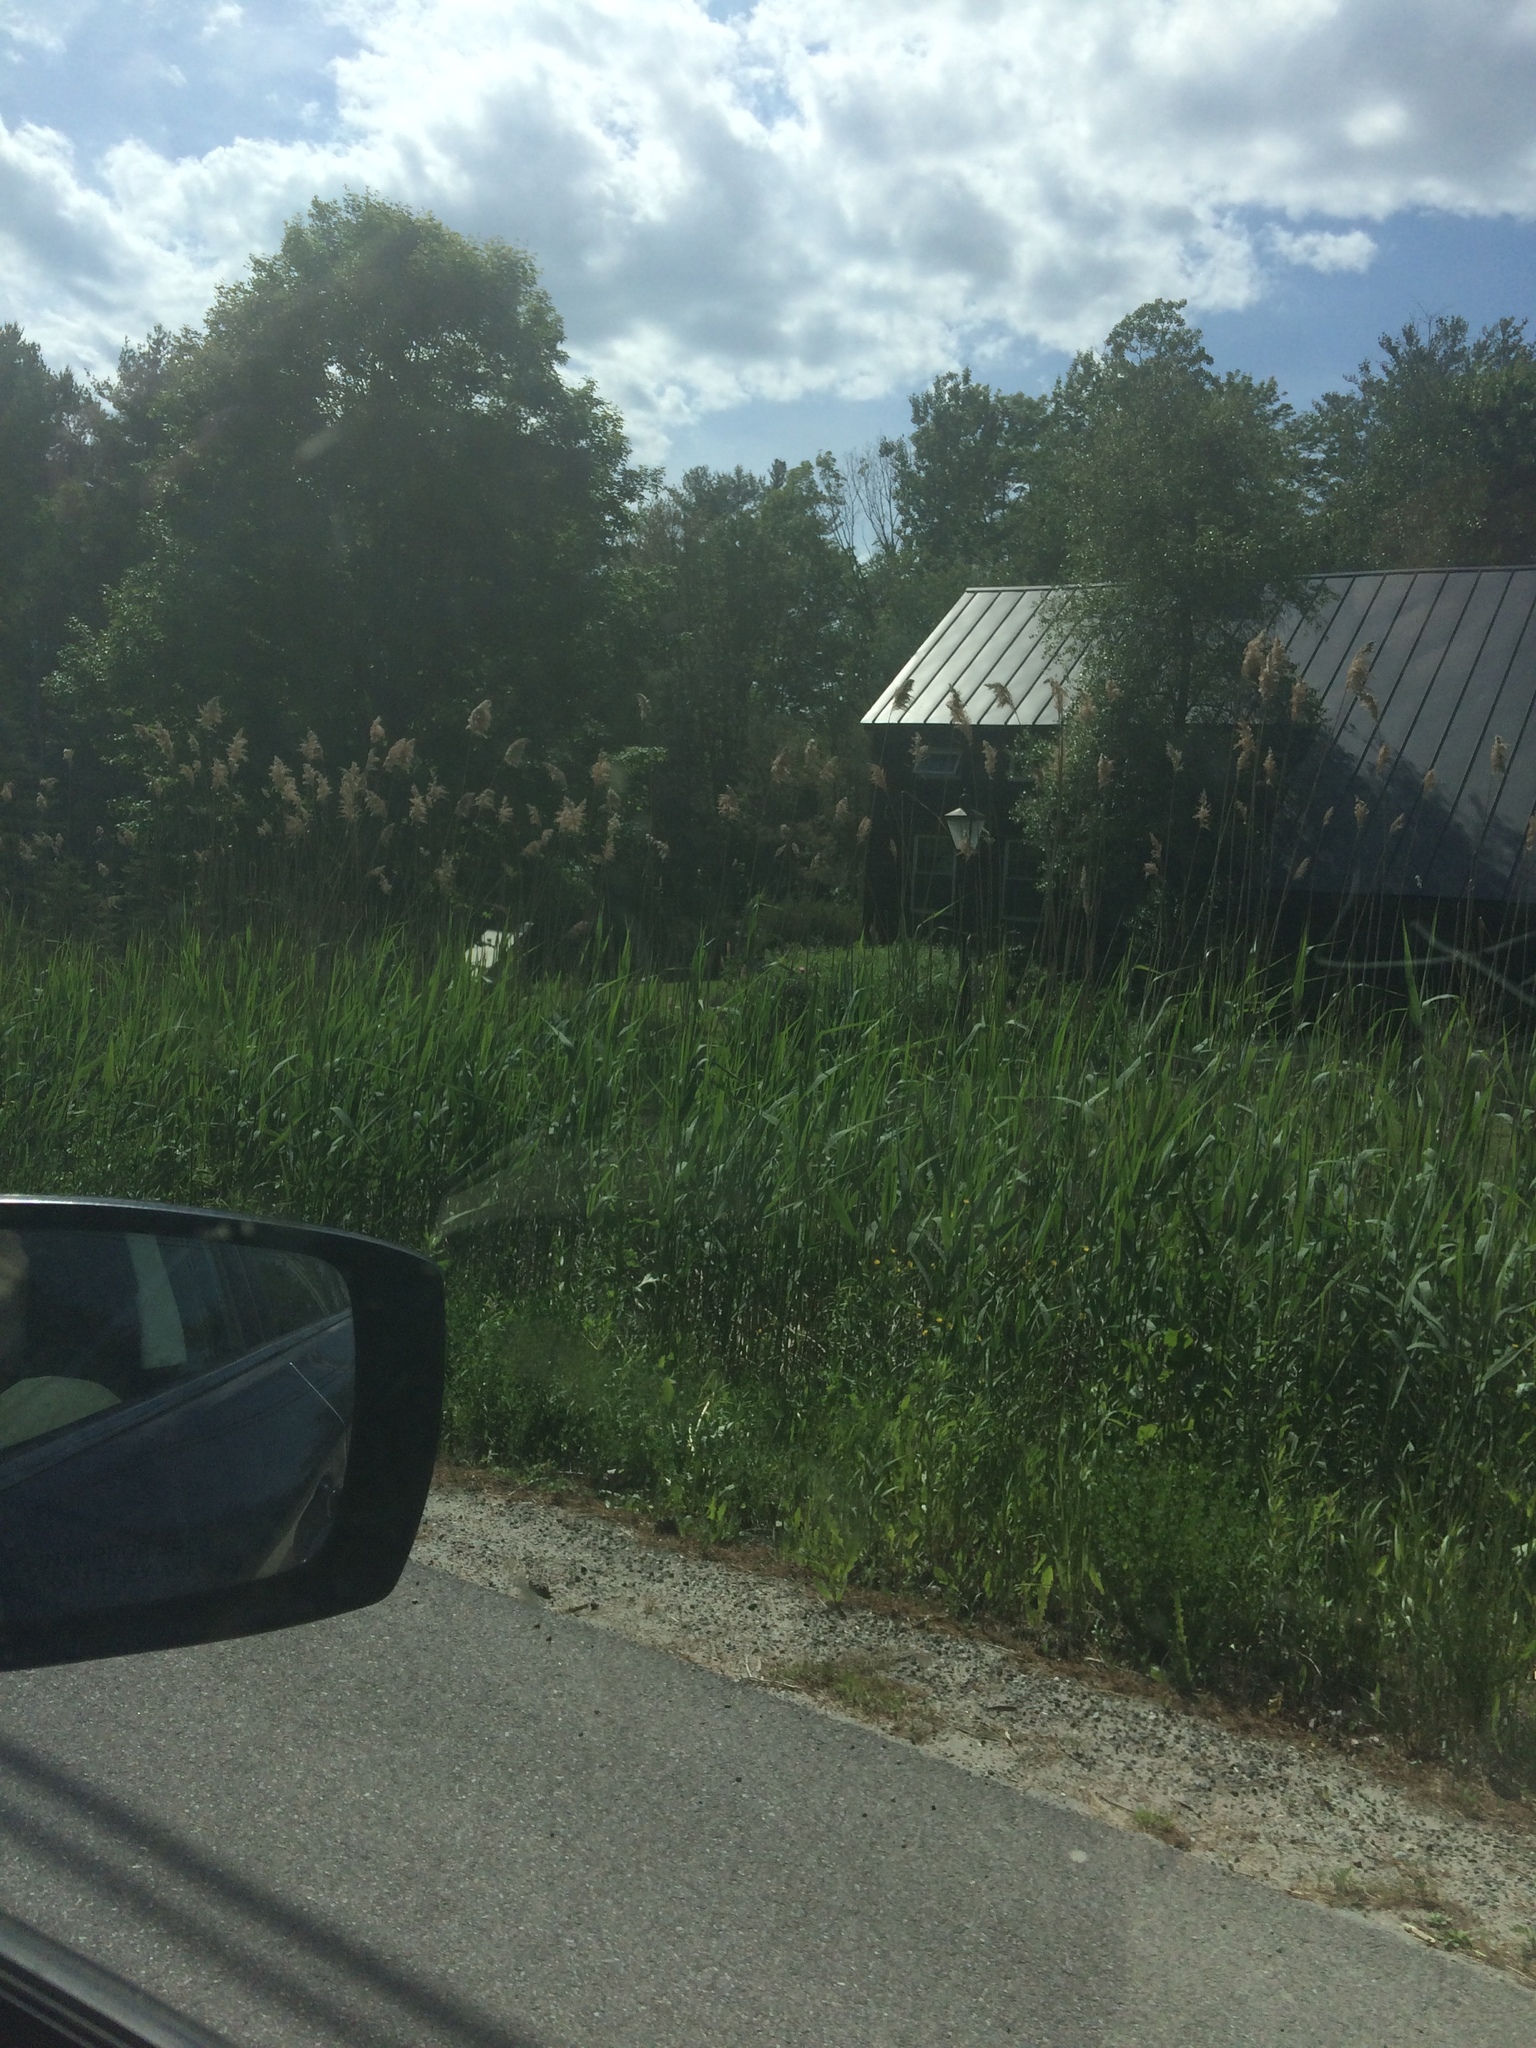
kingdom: Plantae
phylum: Tracheophyta
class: Liliopsida
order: Poales
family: Poaceae
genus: Phragmites
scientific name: Phragmites australis
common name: Common reed
